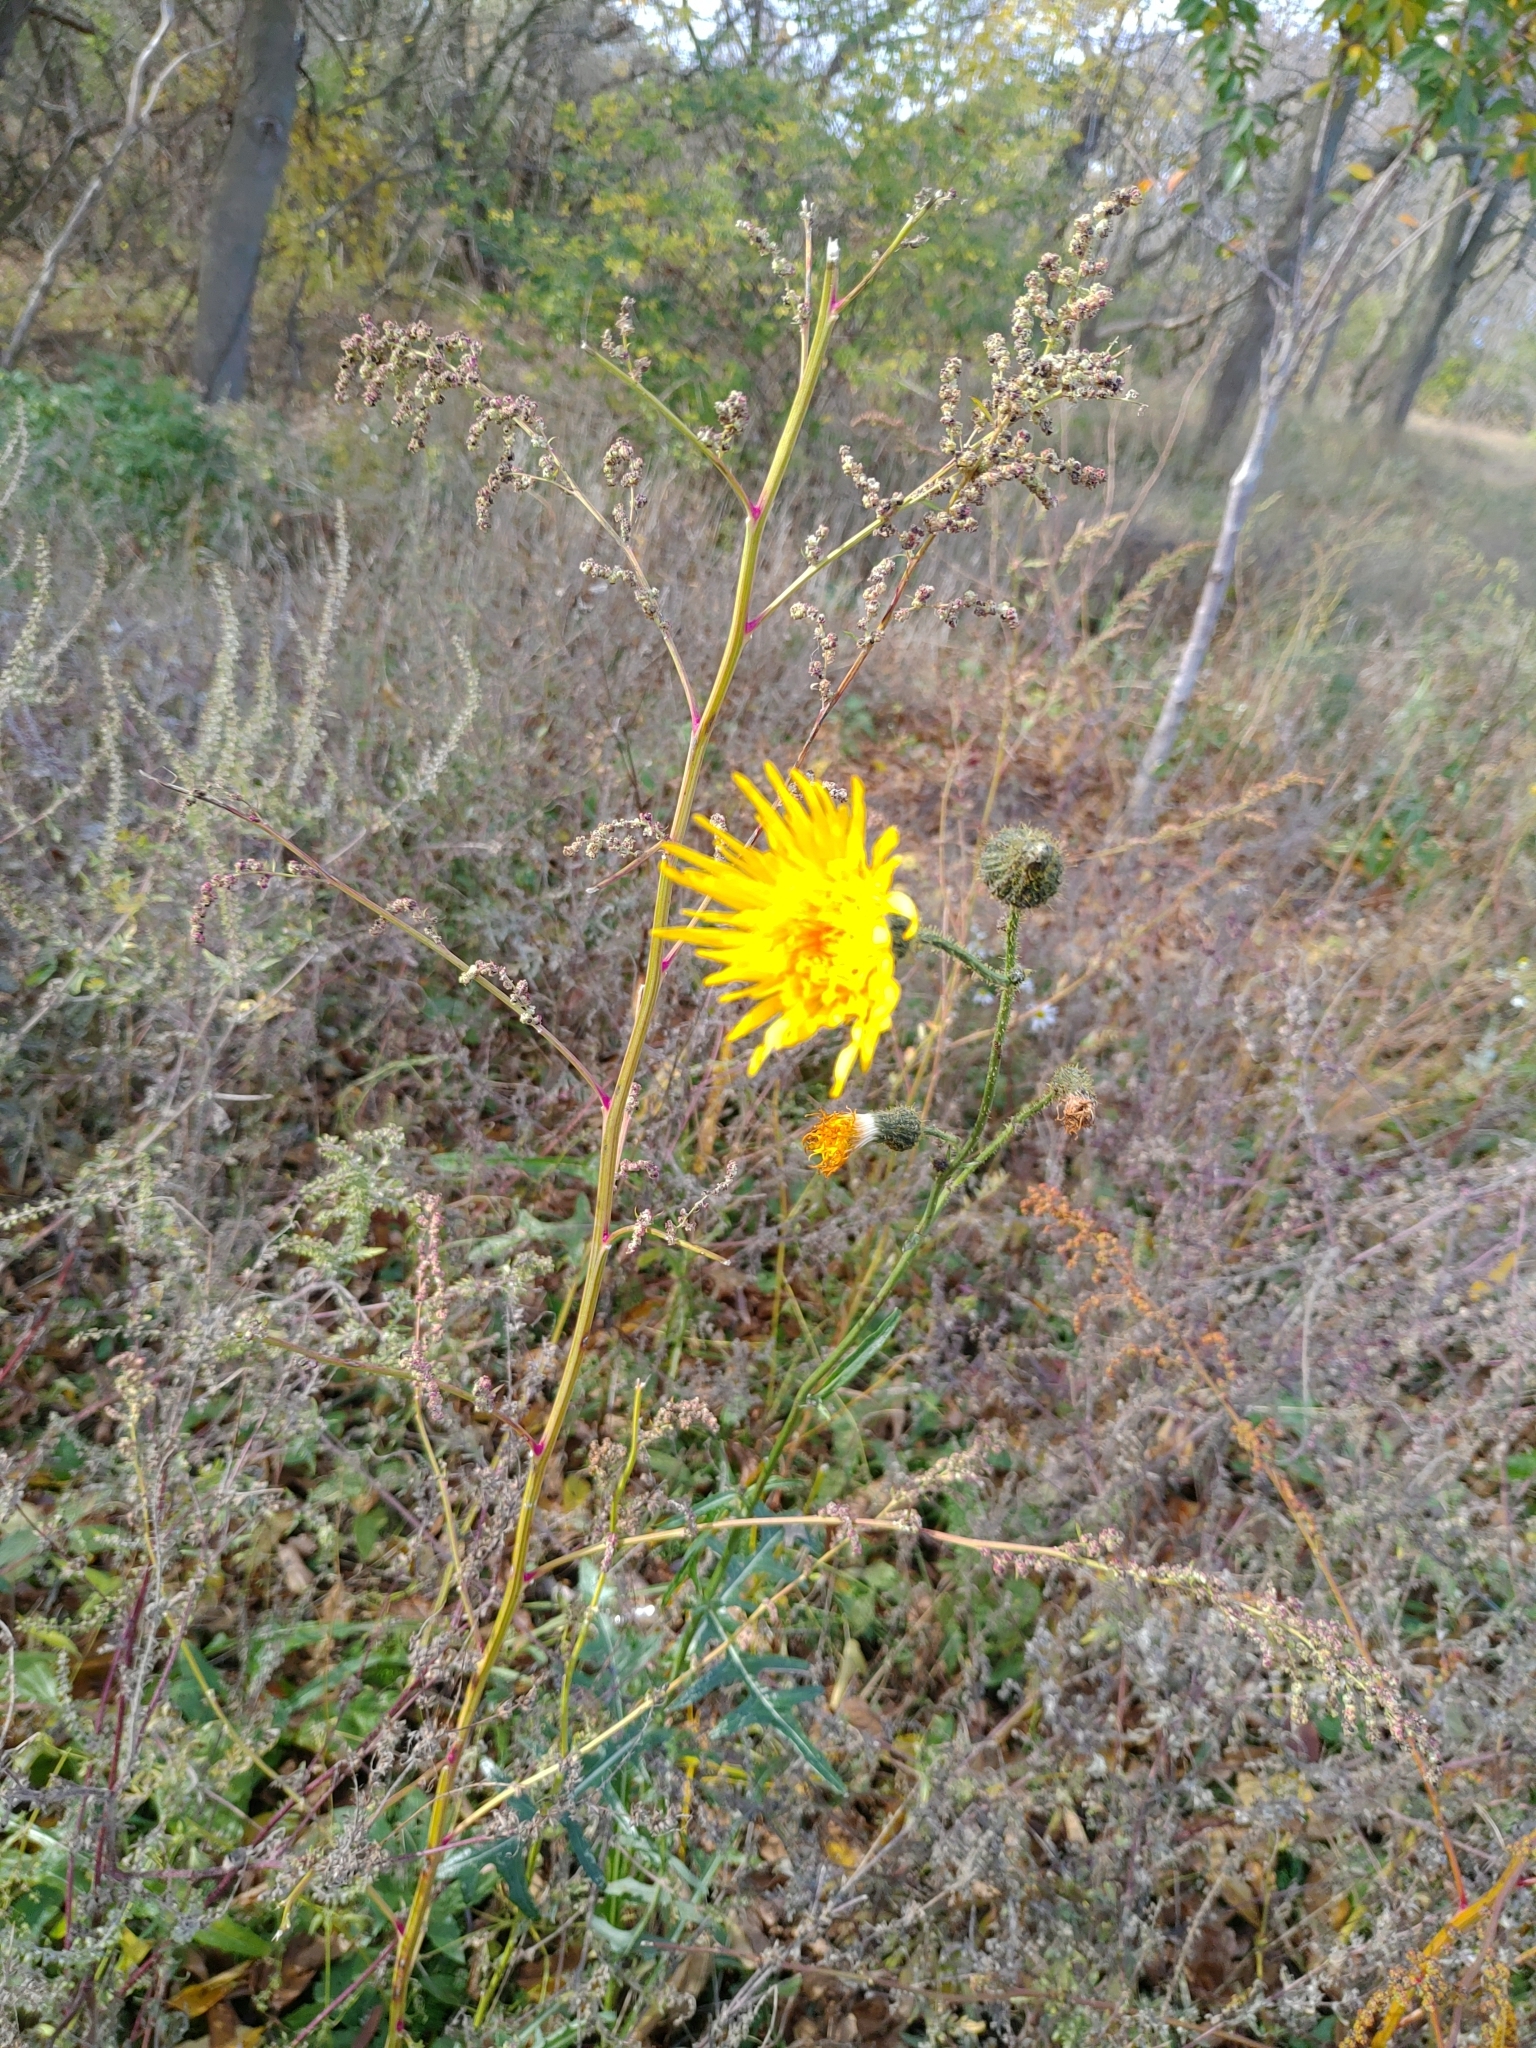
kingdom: Plantae
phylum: Tracheophyta
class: Magnoliopsida
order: Asterales
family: Asteraceae
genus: Sonchus
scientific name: Sonchus arvensis
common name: Perennial sow-thistle
